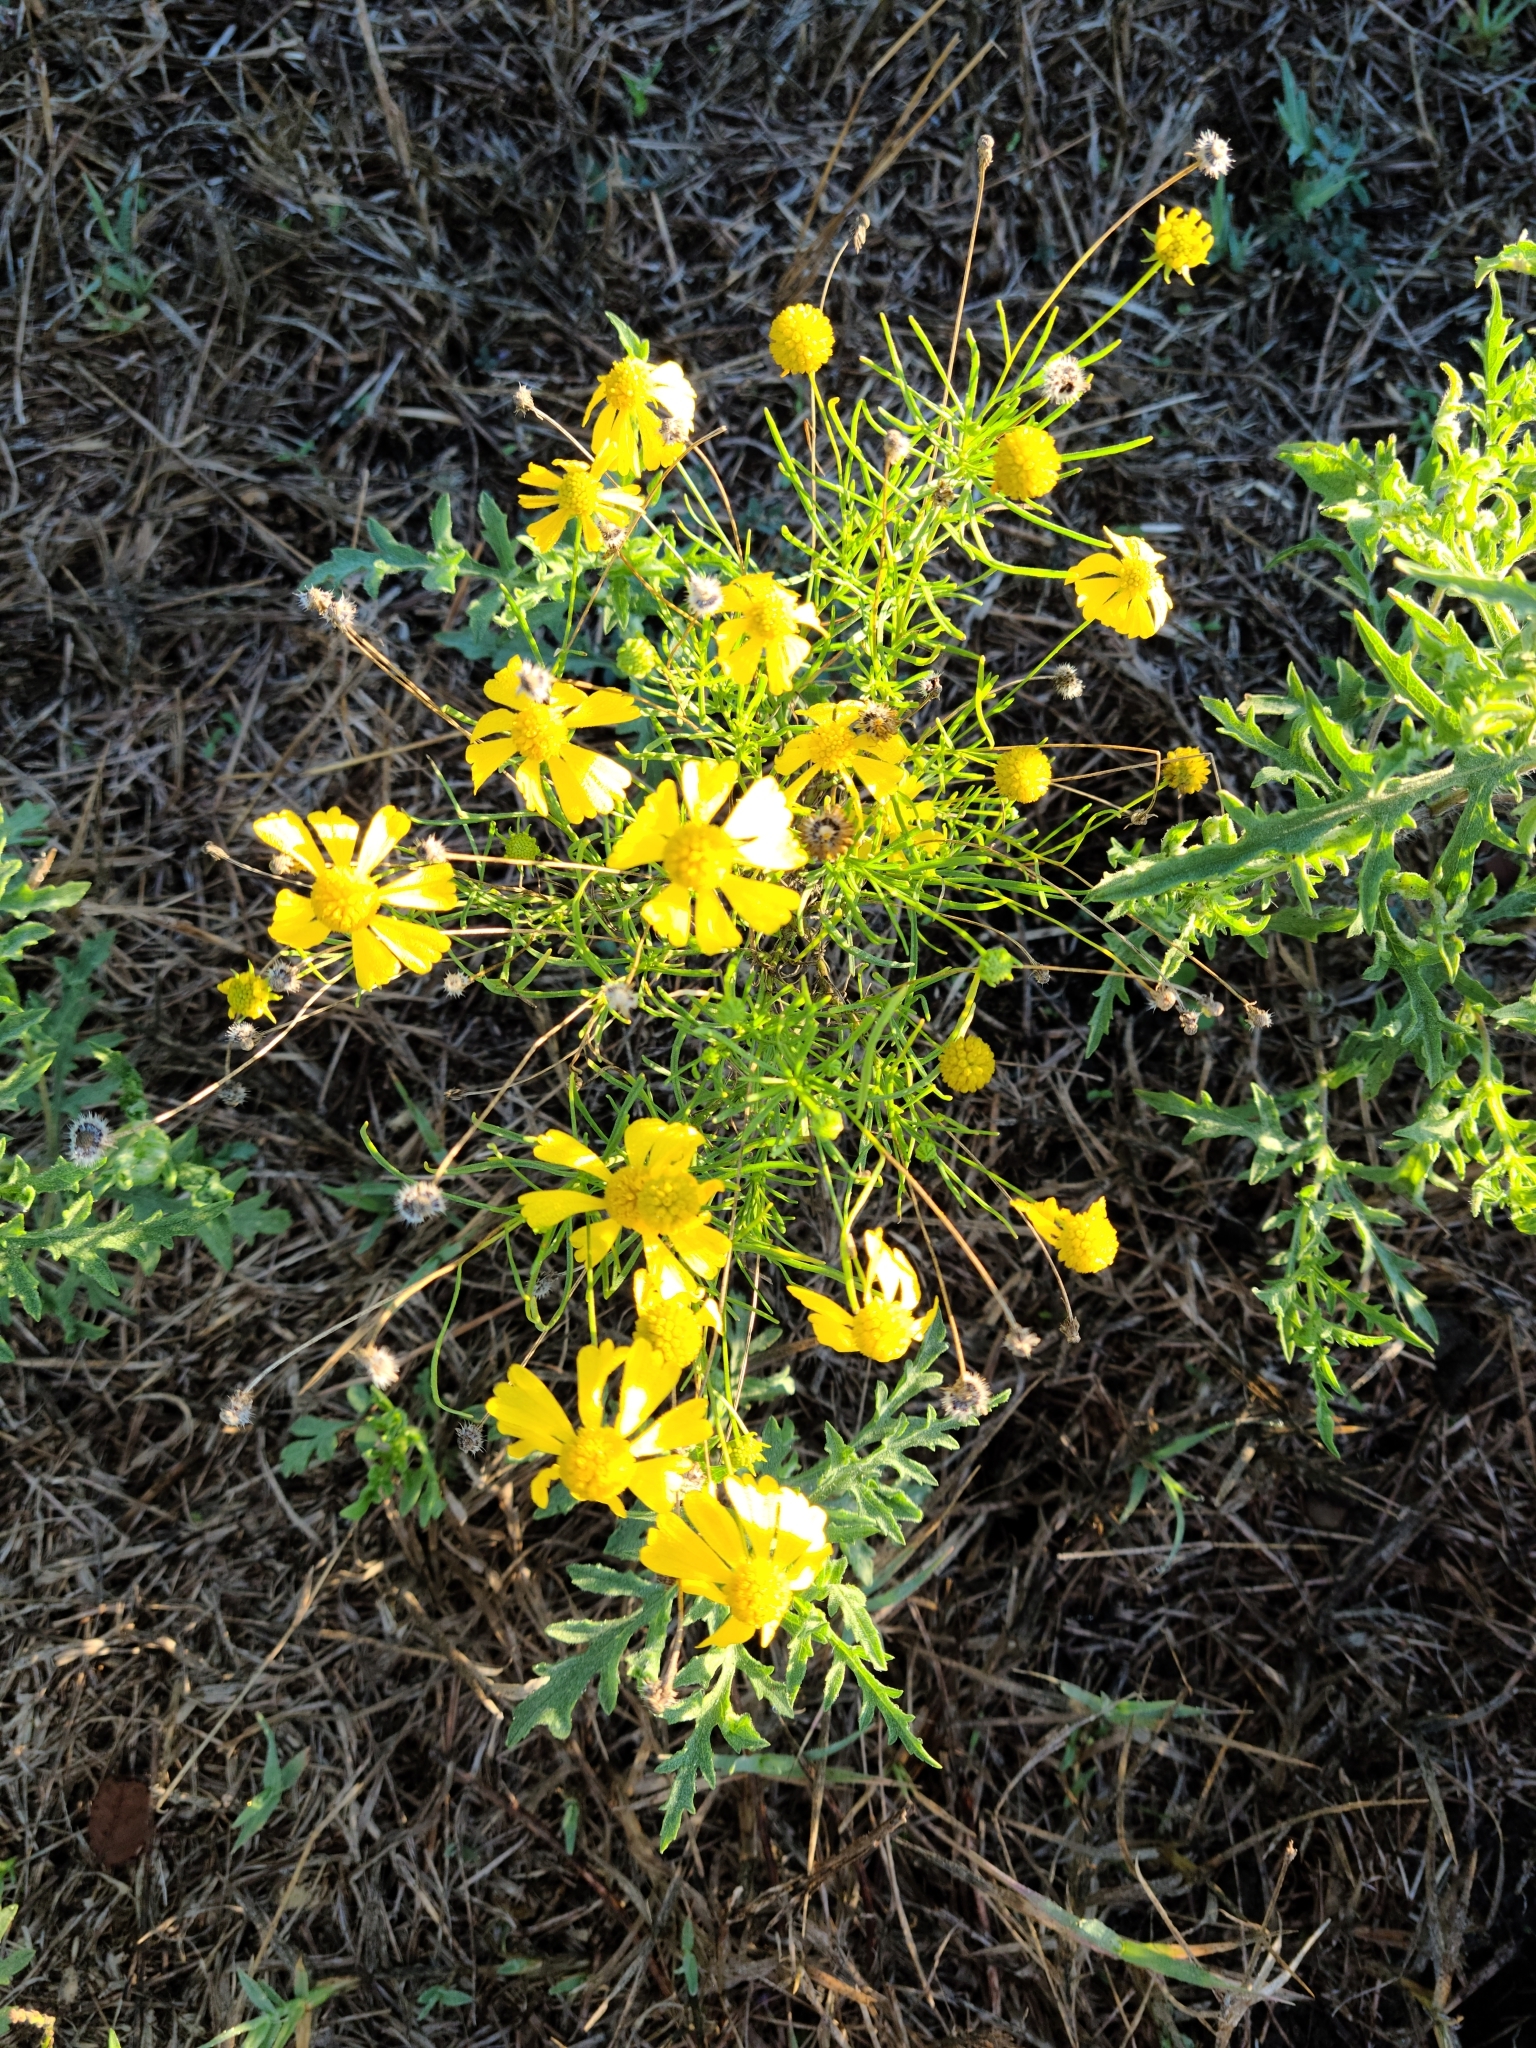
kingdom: Plantae
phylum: Tracheophyta
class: Magnoliopsida
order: Asterales
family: Asteraceae
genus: Helenium
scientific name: Helenium amarum
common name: Bitter sneezeweed
